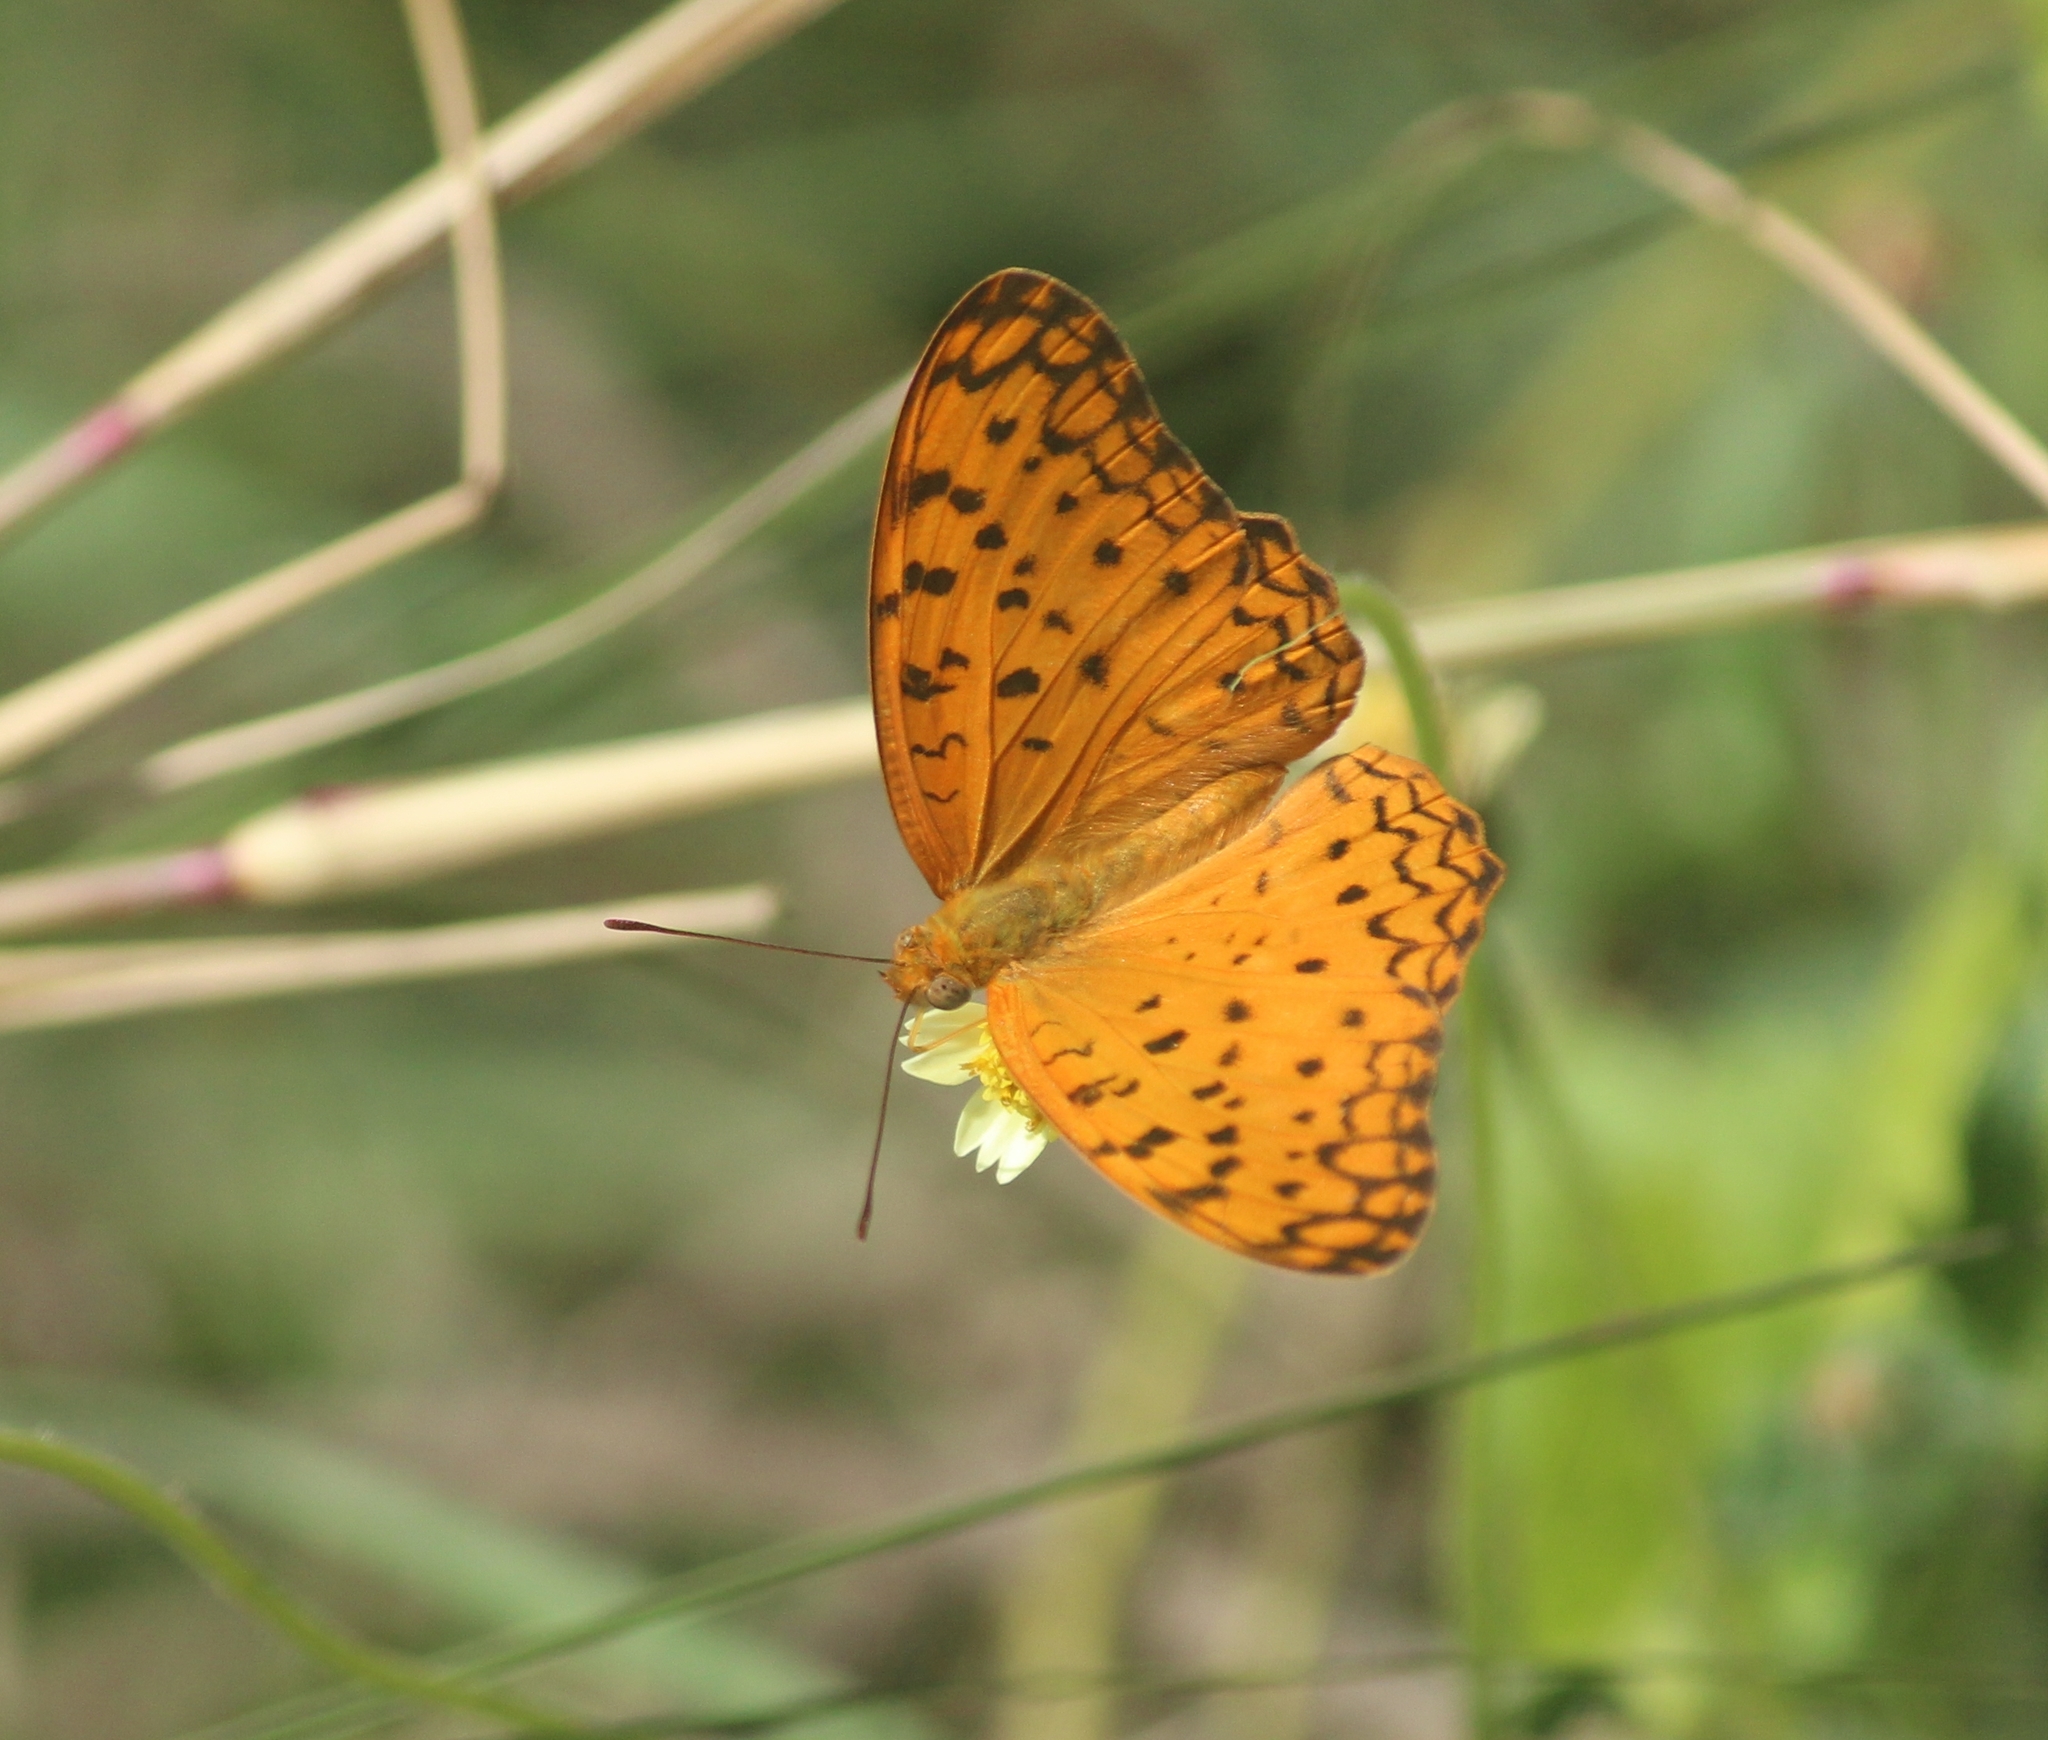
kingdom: Animalia
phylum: Arthropoda
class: Insecta
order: Lepidoptera
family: Nymphalidae
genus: Phalanta
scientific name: Phalanta phalantha
